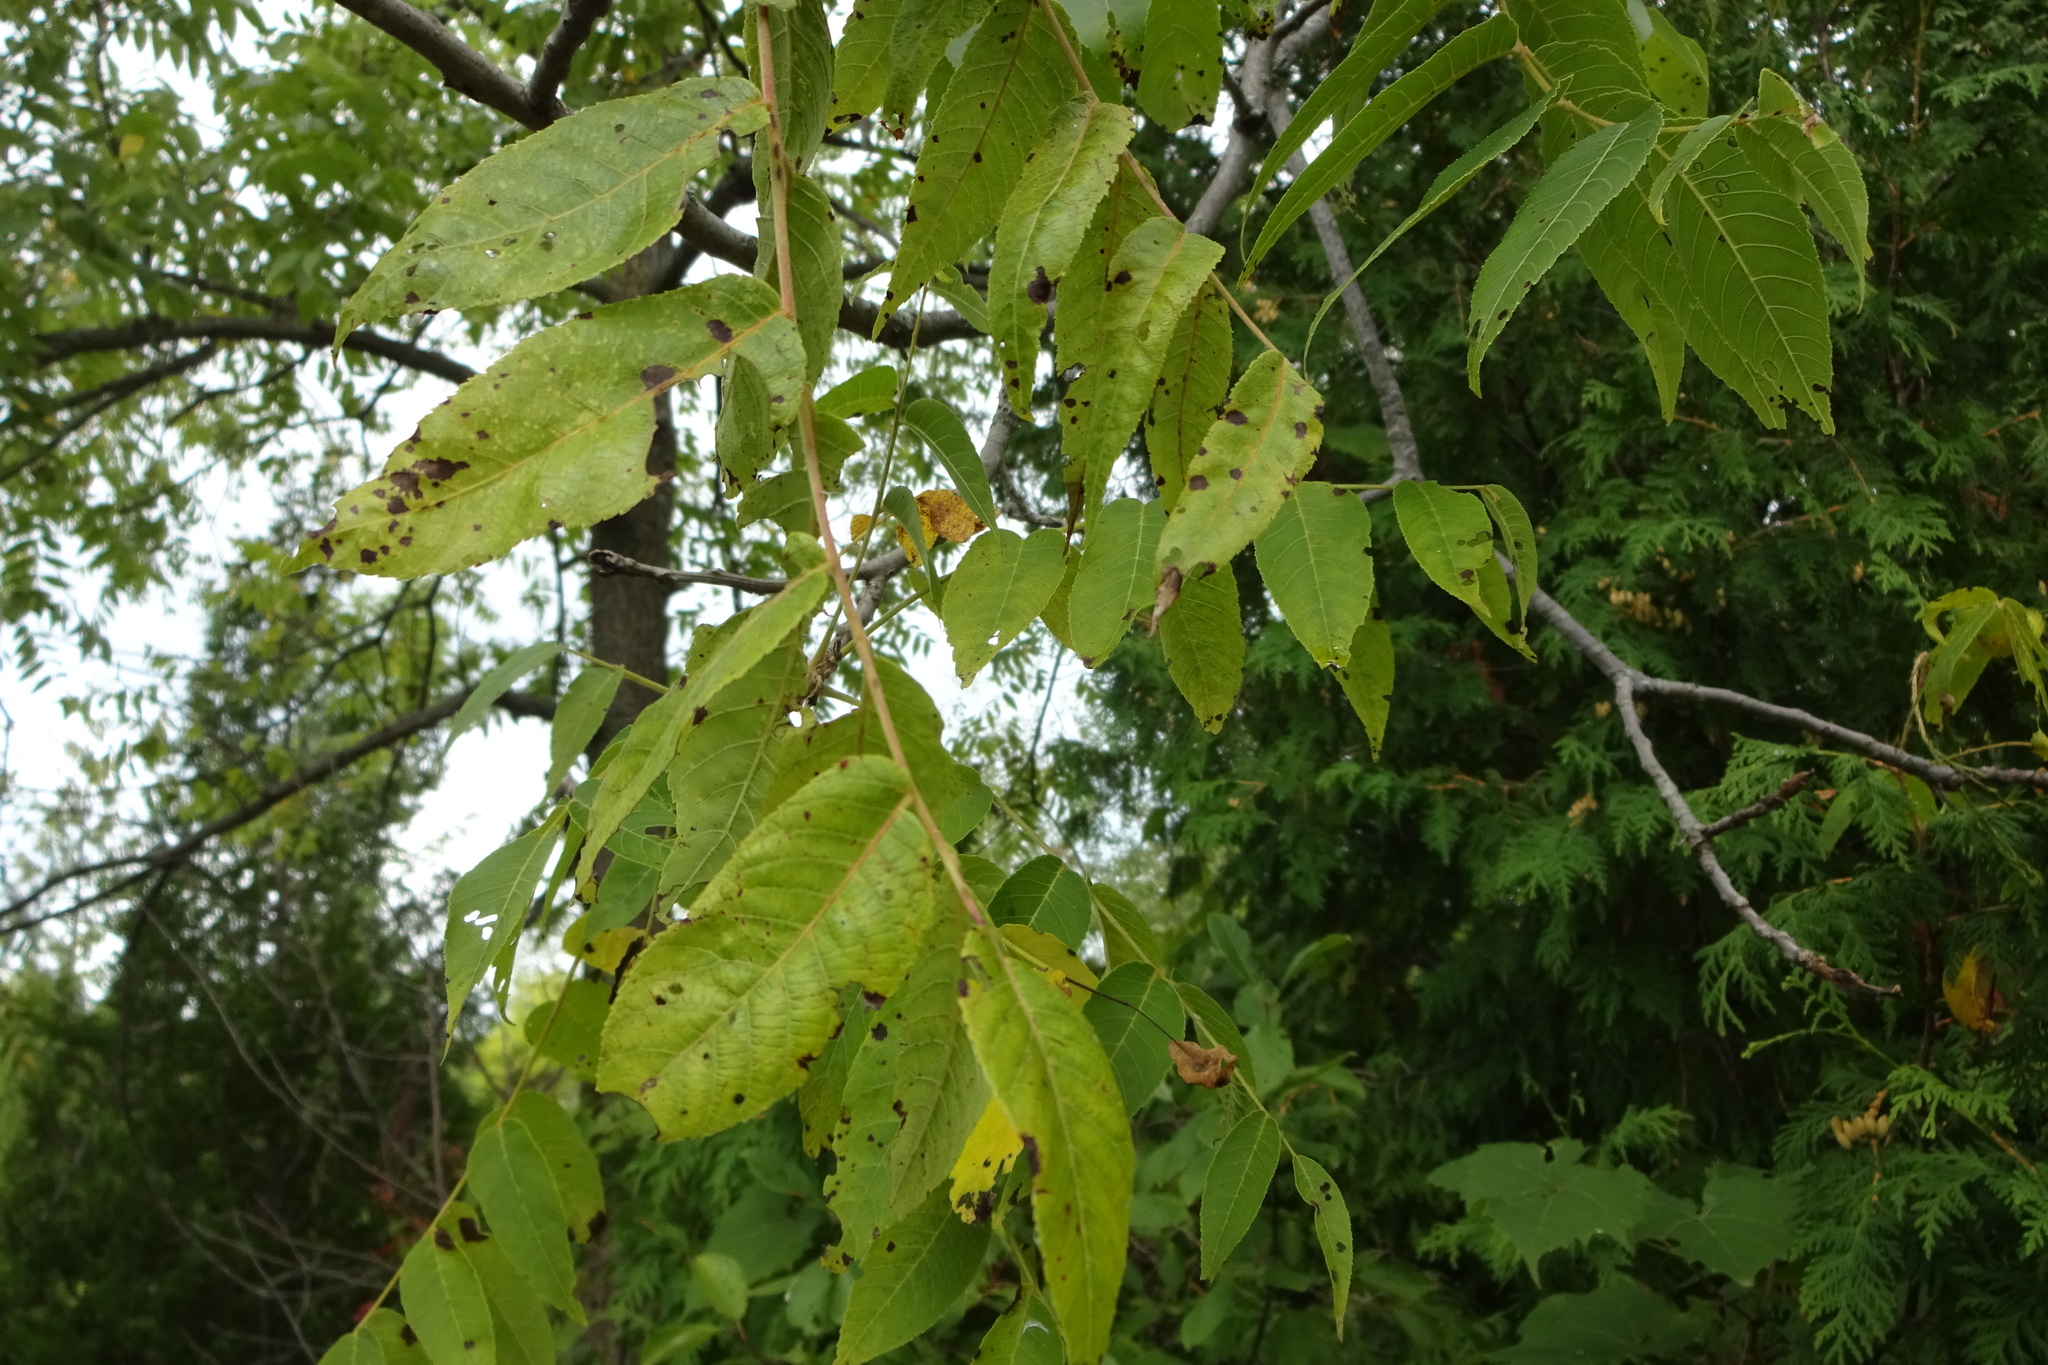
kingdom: Plantae
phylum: Tracheophyta
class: Magnoliopsida
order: Fagales
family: Juglandaceae
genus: Juglans
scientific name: Juglans nigra
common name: Black walnut
